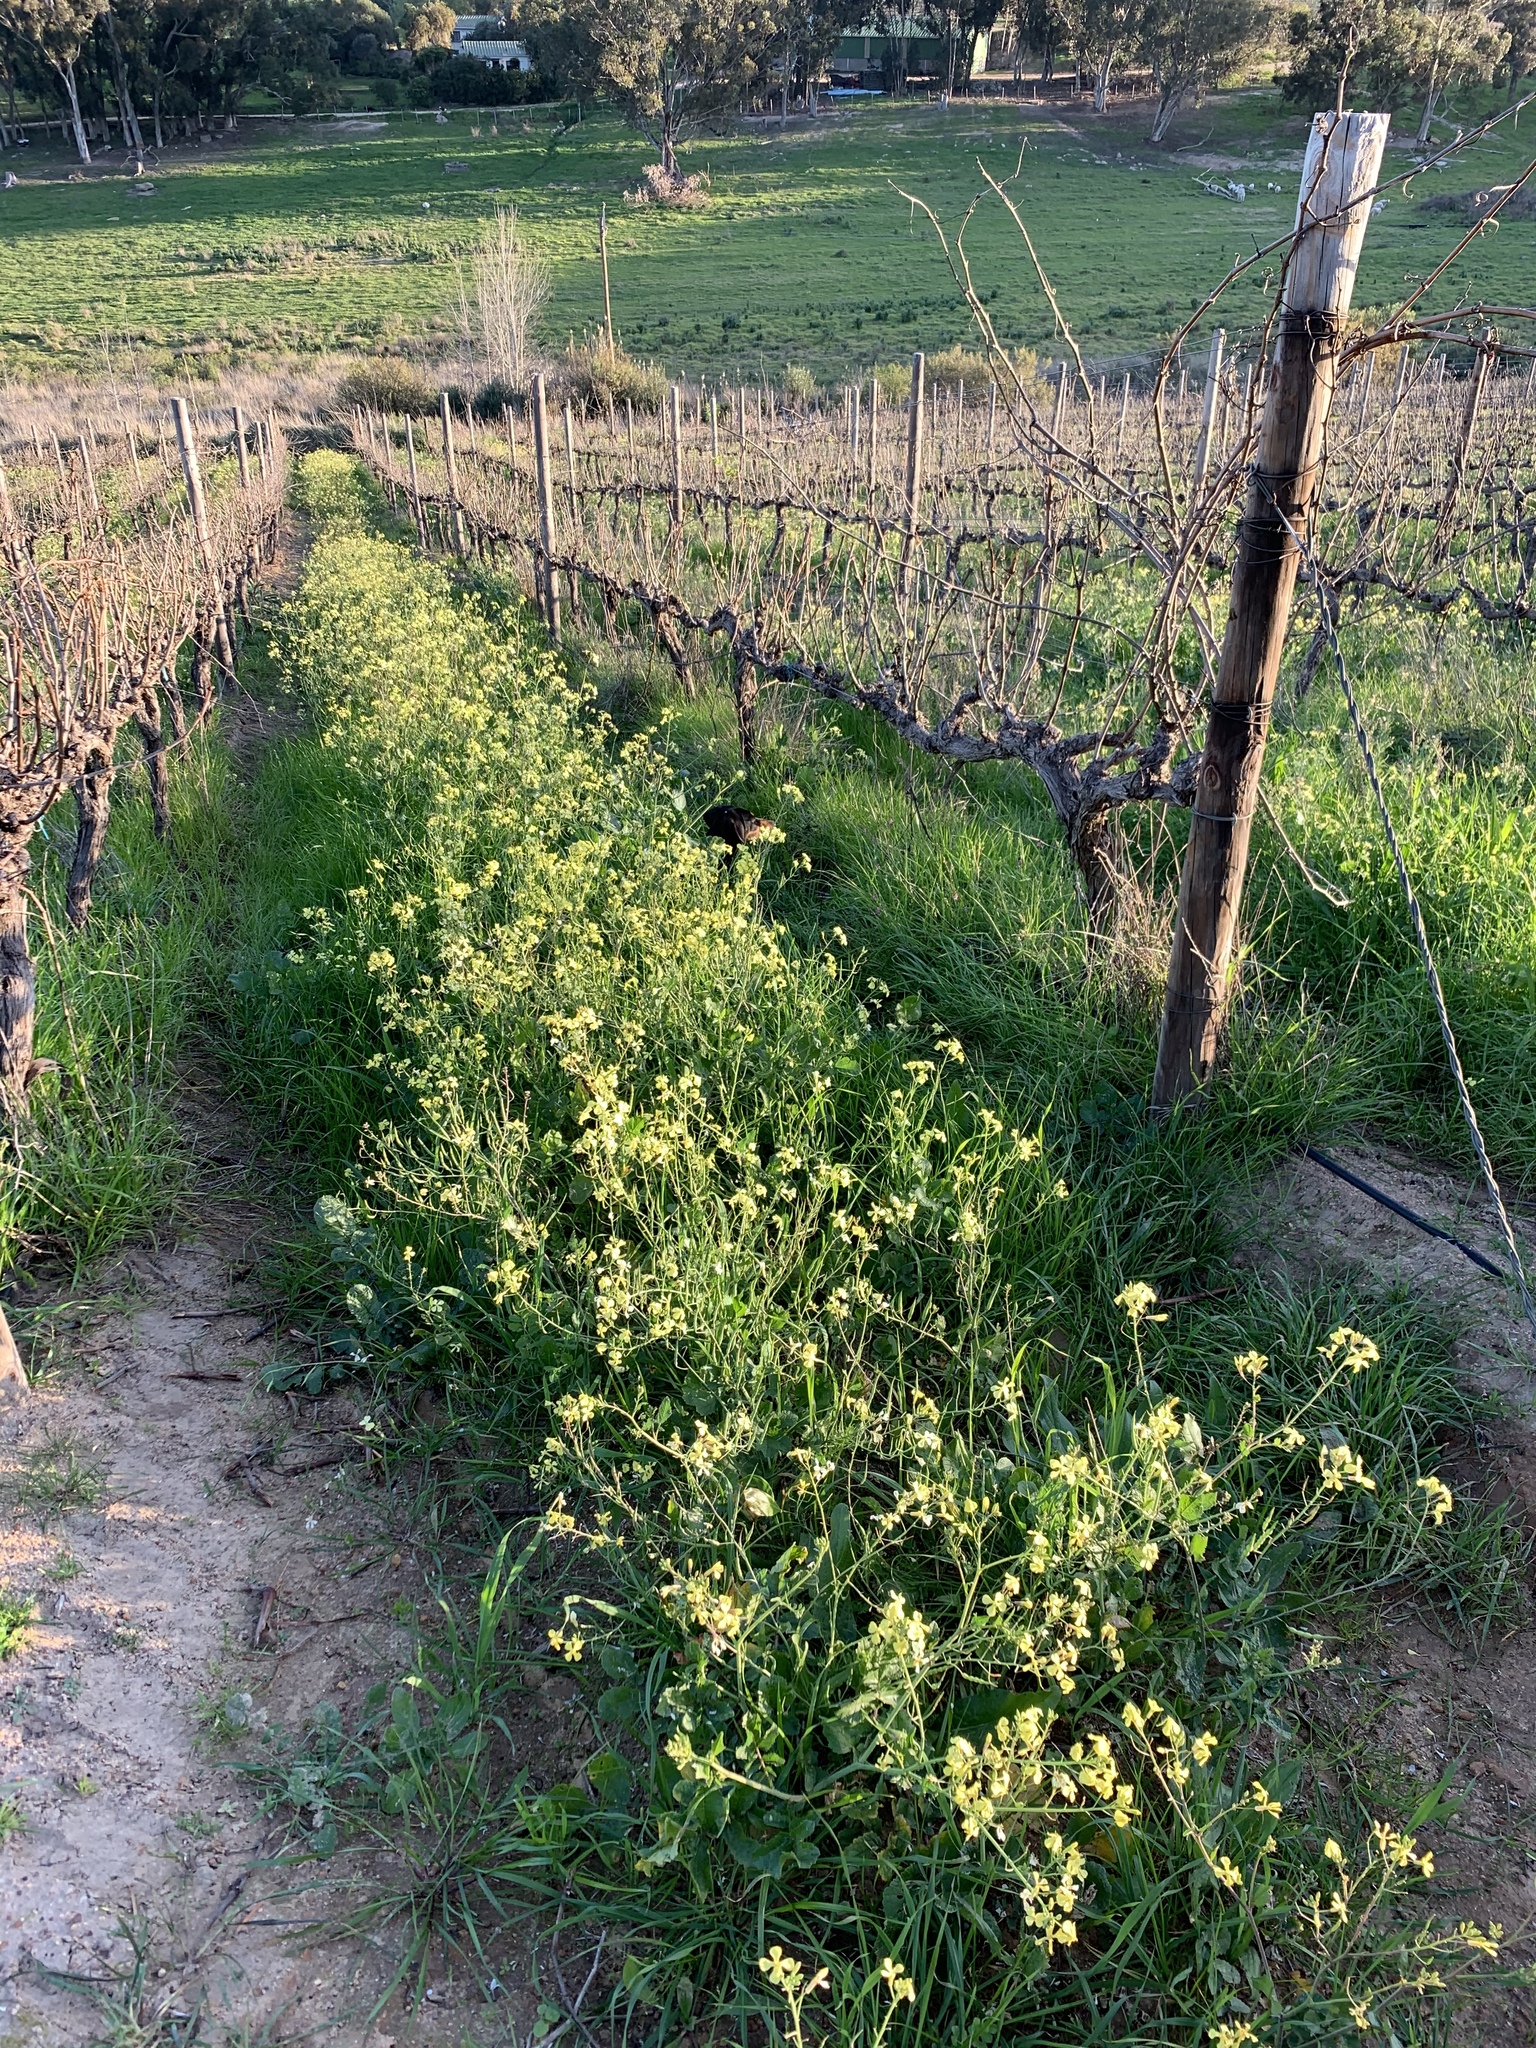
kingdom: Plantae
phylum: Tracheophyta
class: Magnoliopsida
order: Brassicales
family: Brassicaceae
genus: Raphanus
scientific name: Raphanus raphanistrum
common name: Wild radish
